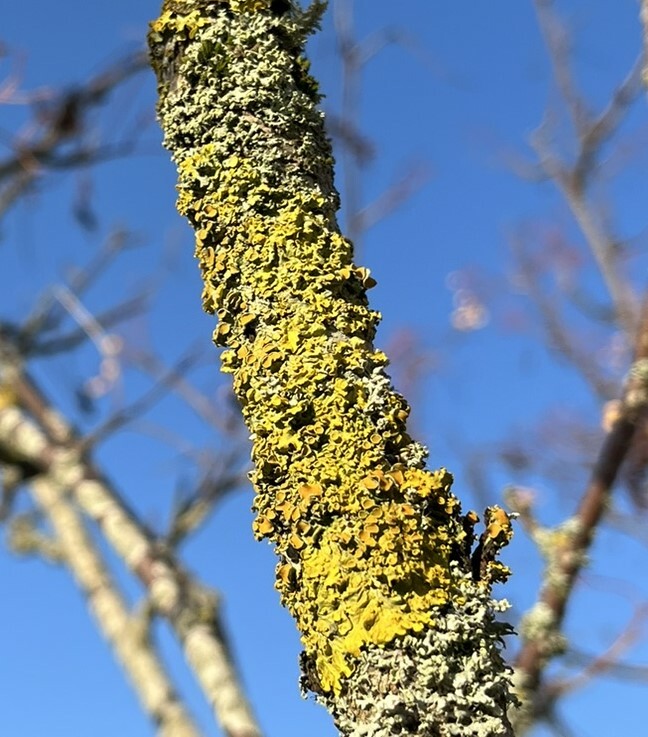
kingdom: Fungi
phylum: Ascomycota
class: Lecanoromycetes
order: Teloschistales
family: Teloschistaceae
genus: Xanthoria
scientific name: Xanthoria parietina
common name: Common orange lichen
